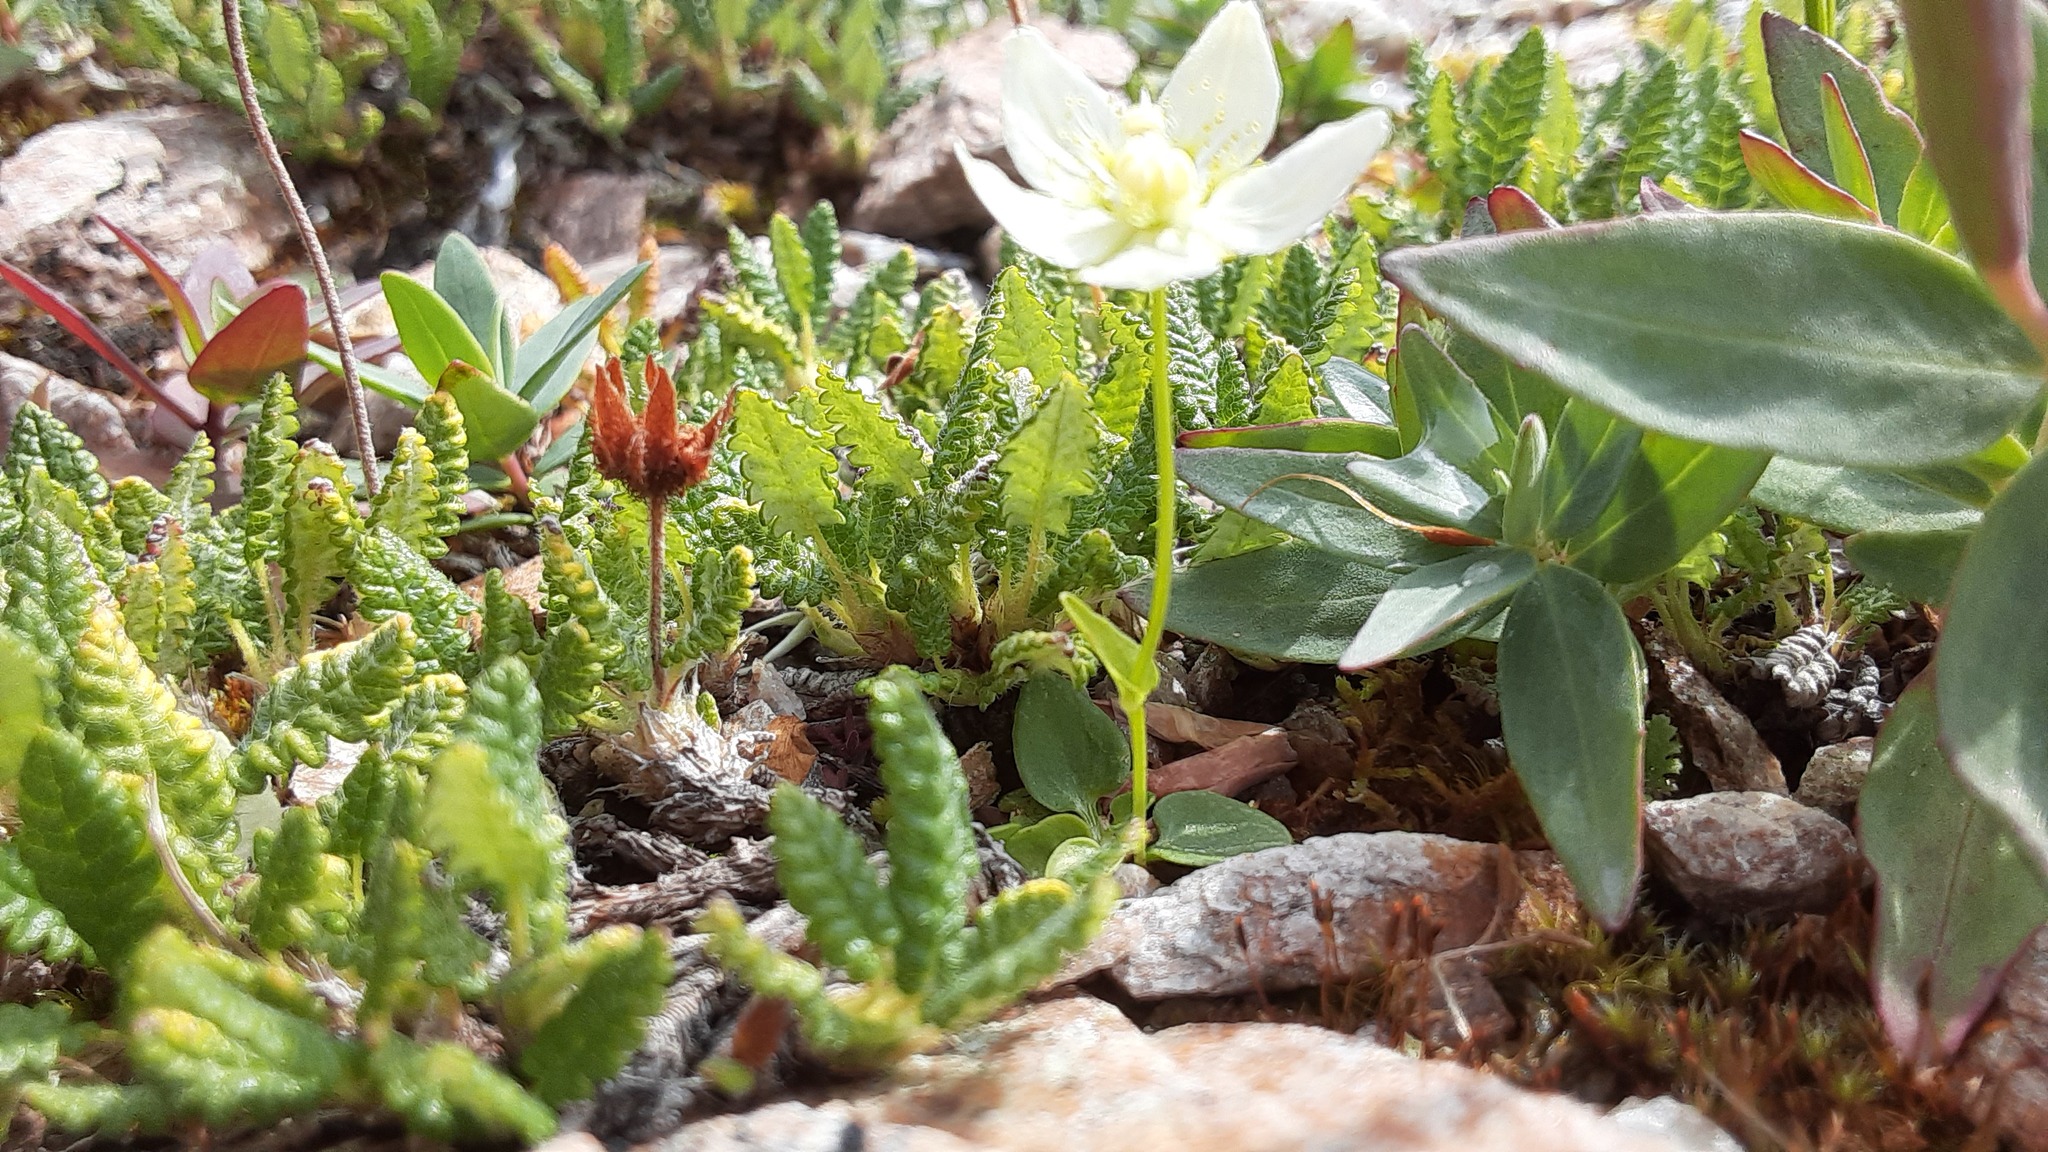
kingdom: Plantae
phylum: Tracheophyta
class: Magnoliopsida
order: Celastrales
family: Parnassiaceae
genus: Parnassia
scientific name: Parnassia palustris
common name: Grass-of-parnassus
